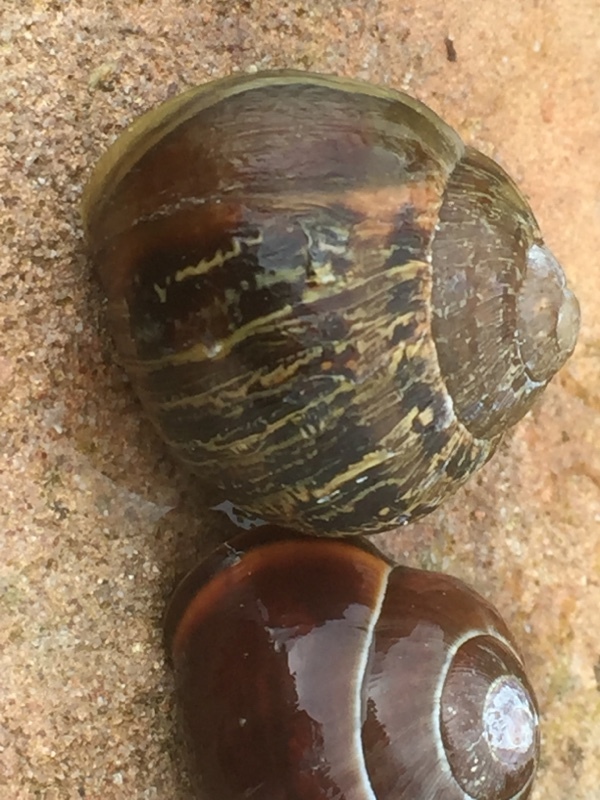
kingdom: Animalia
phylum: Mollusca
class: Gastropoda
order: Stylommatophora
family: Helicidae
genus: Cepaea
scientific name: Cepaea nemoralis
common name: Grovesnail
